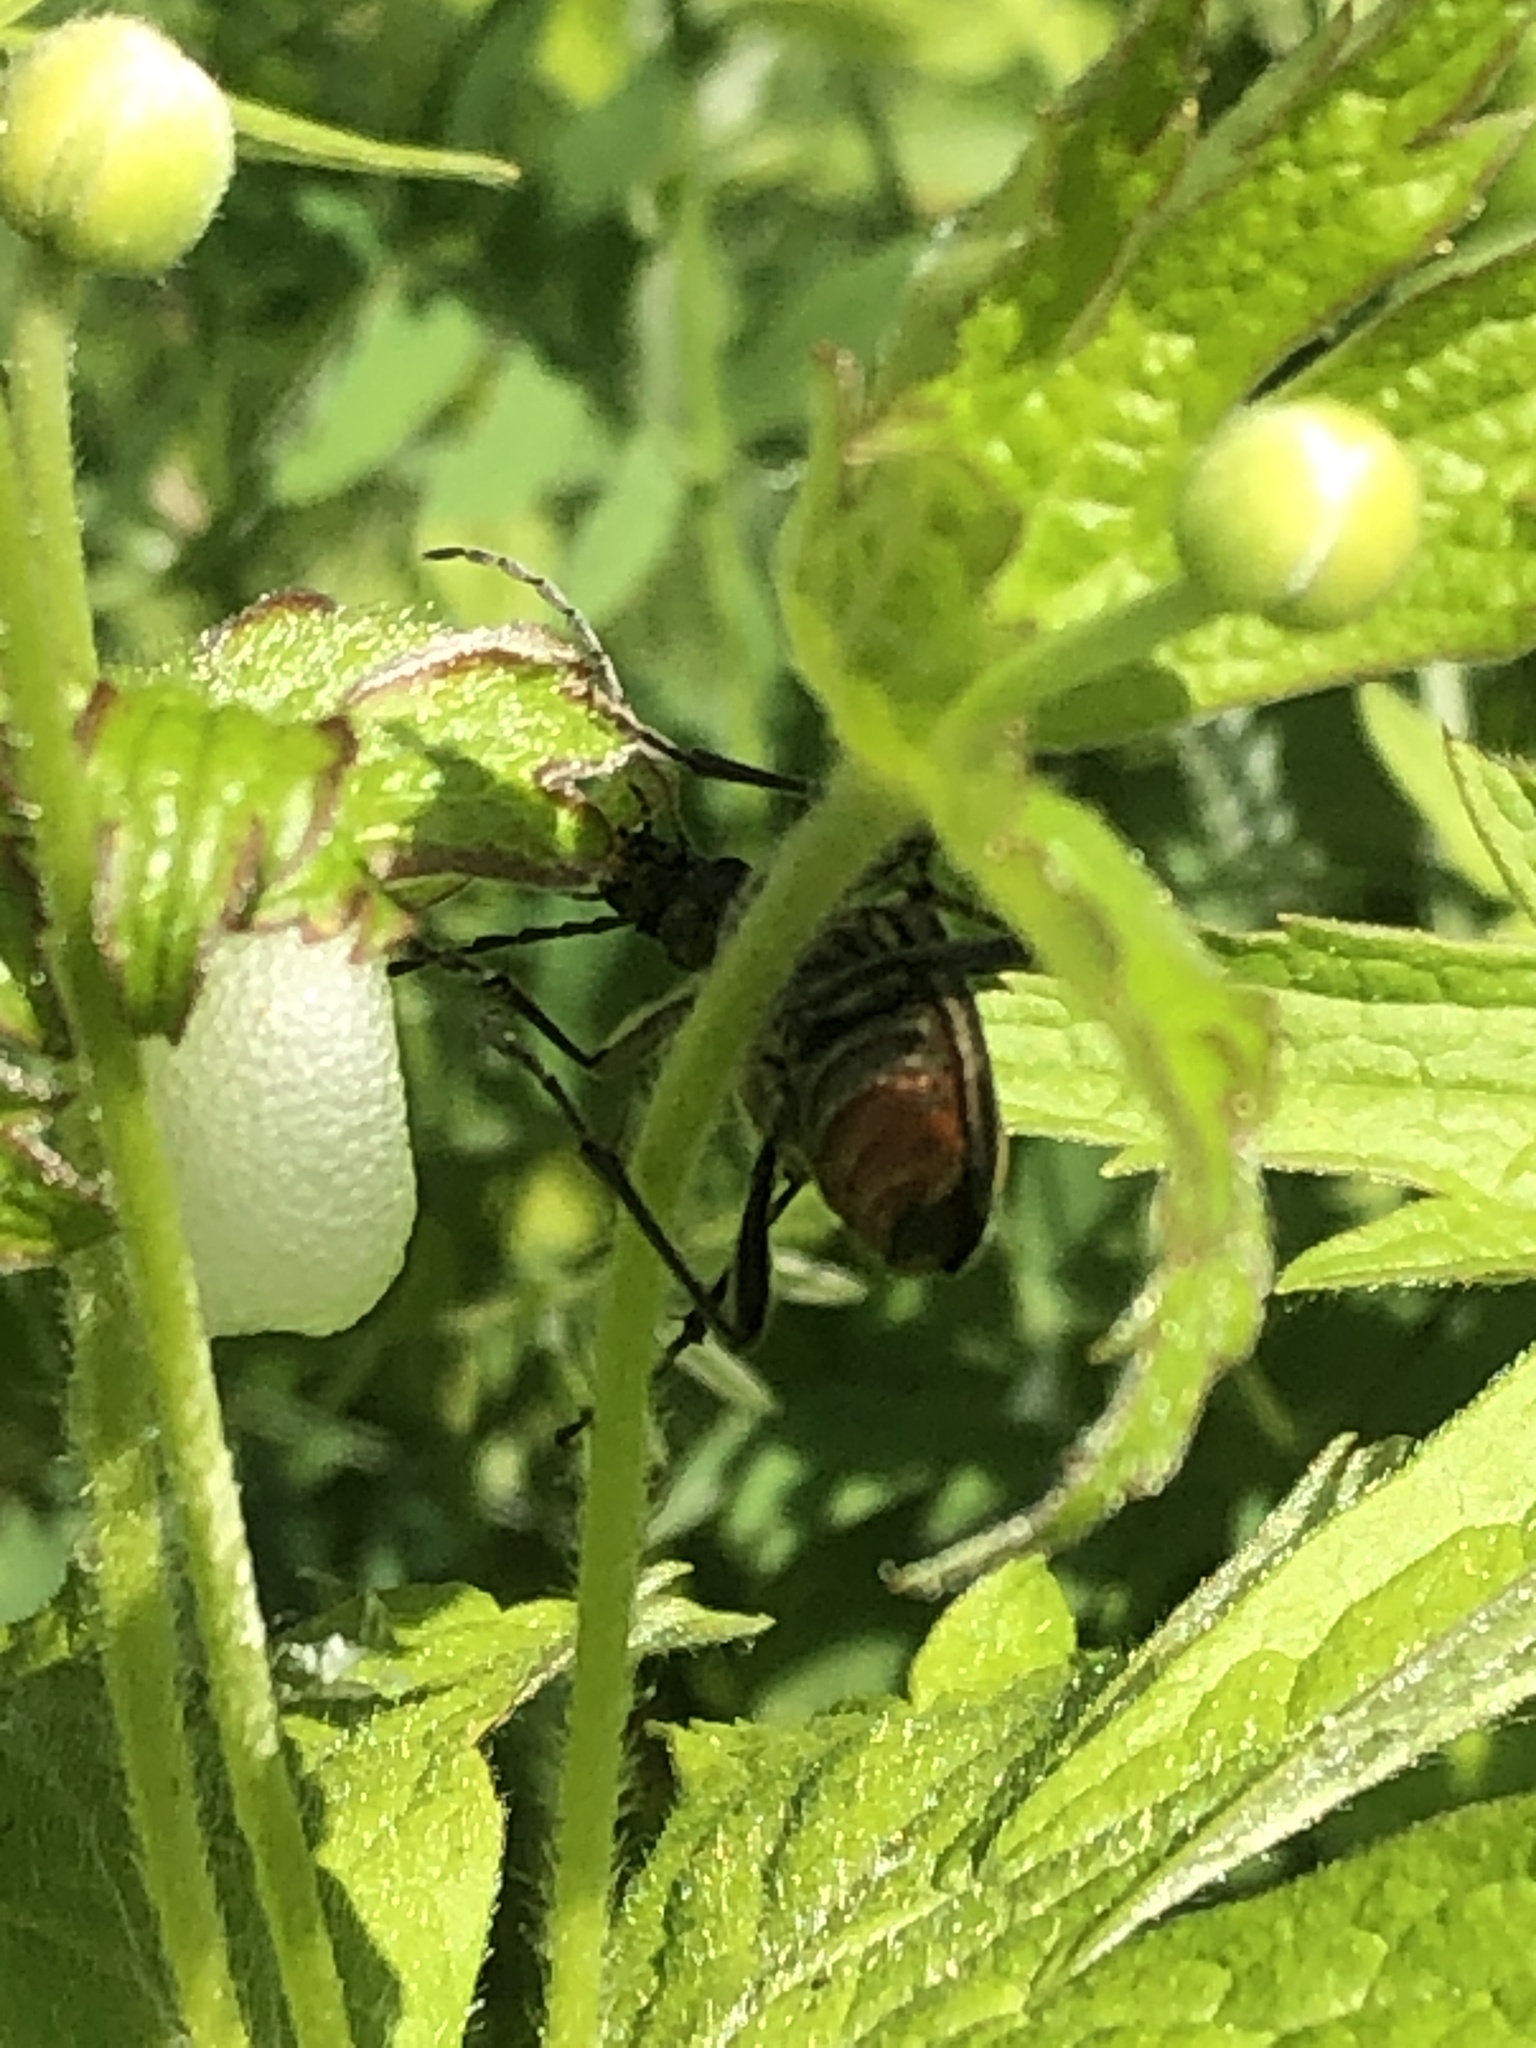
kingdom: Animalia
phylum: Arthropoda
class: Insecta
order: Coleoptera
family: Cerambycidae
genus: Stenocorus
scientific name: Stenocorus vittiger
